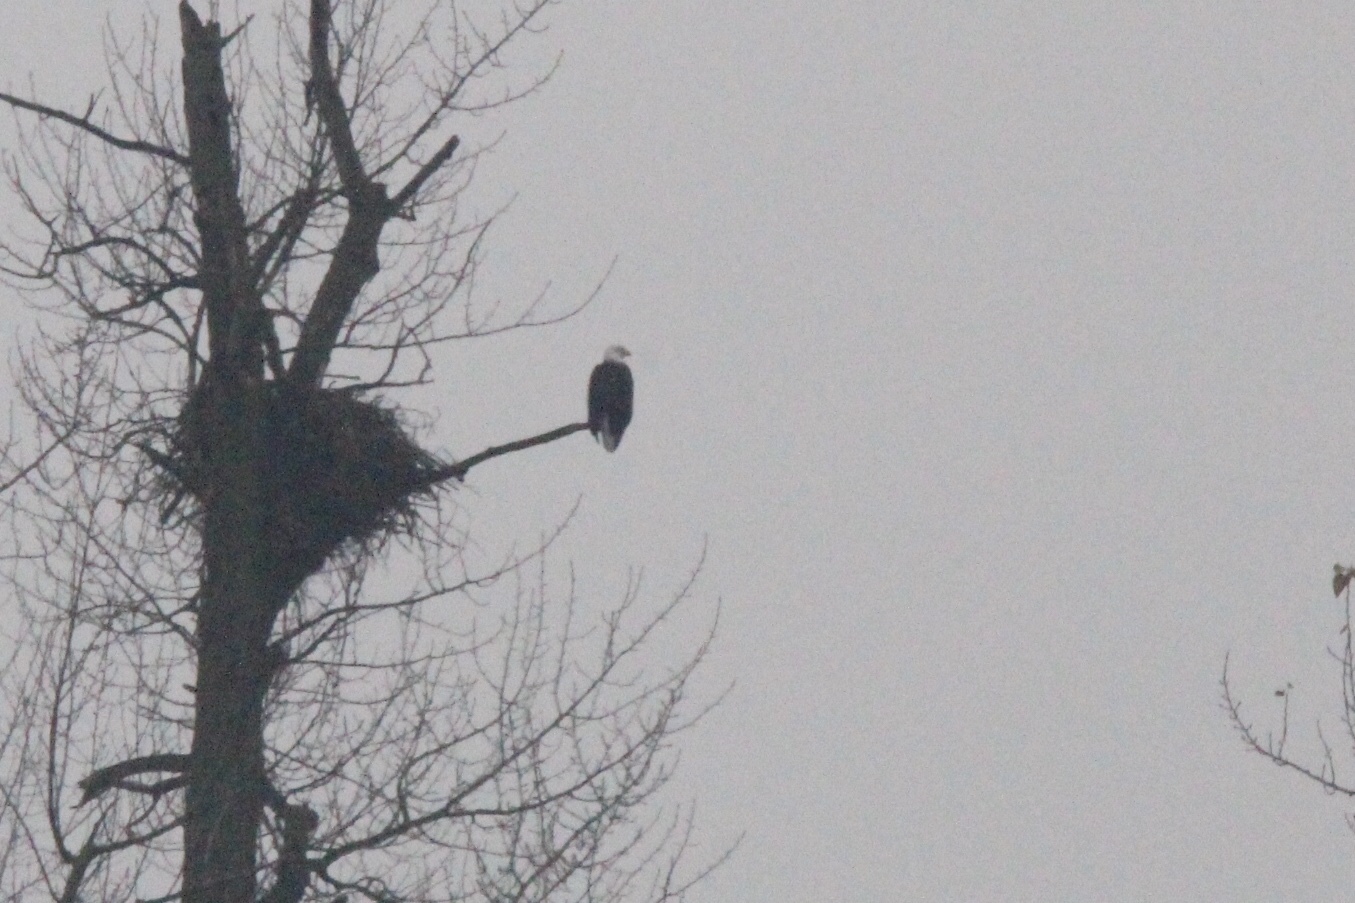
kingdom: Animalia
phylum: Chordata
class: Aves
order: Accipitriformes
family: Accipitridae
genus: Haliaeetus
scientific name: Haliaeetus leucocephalus
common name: Bald eagle
